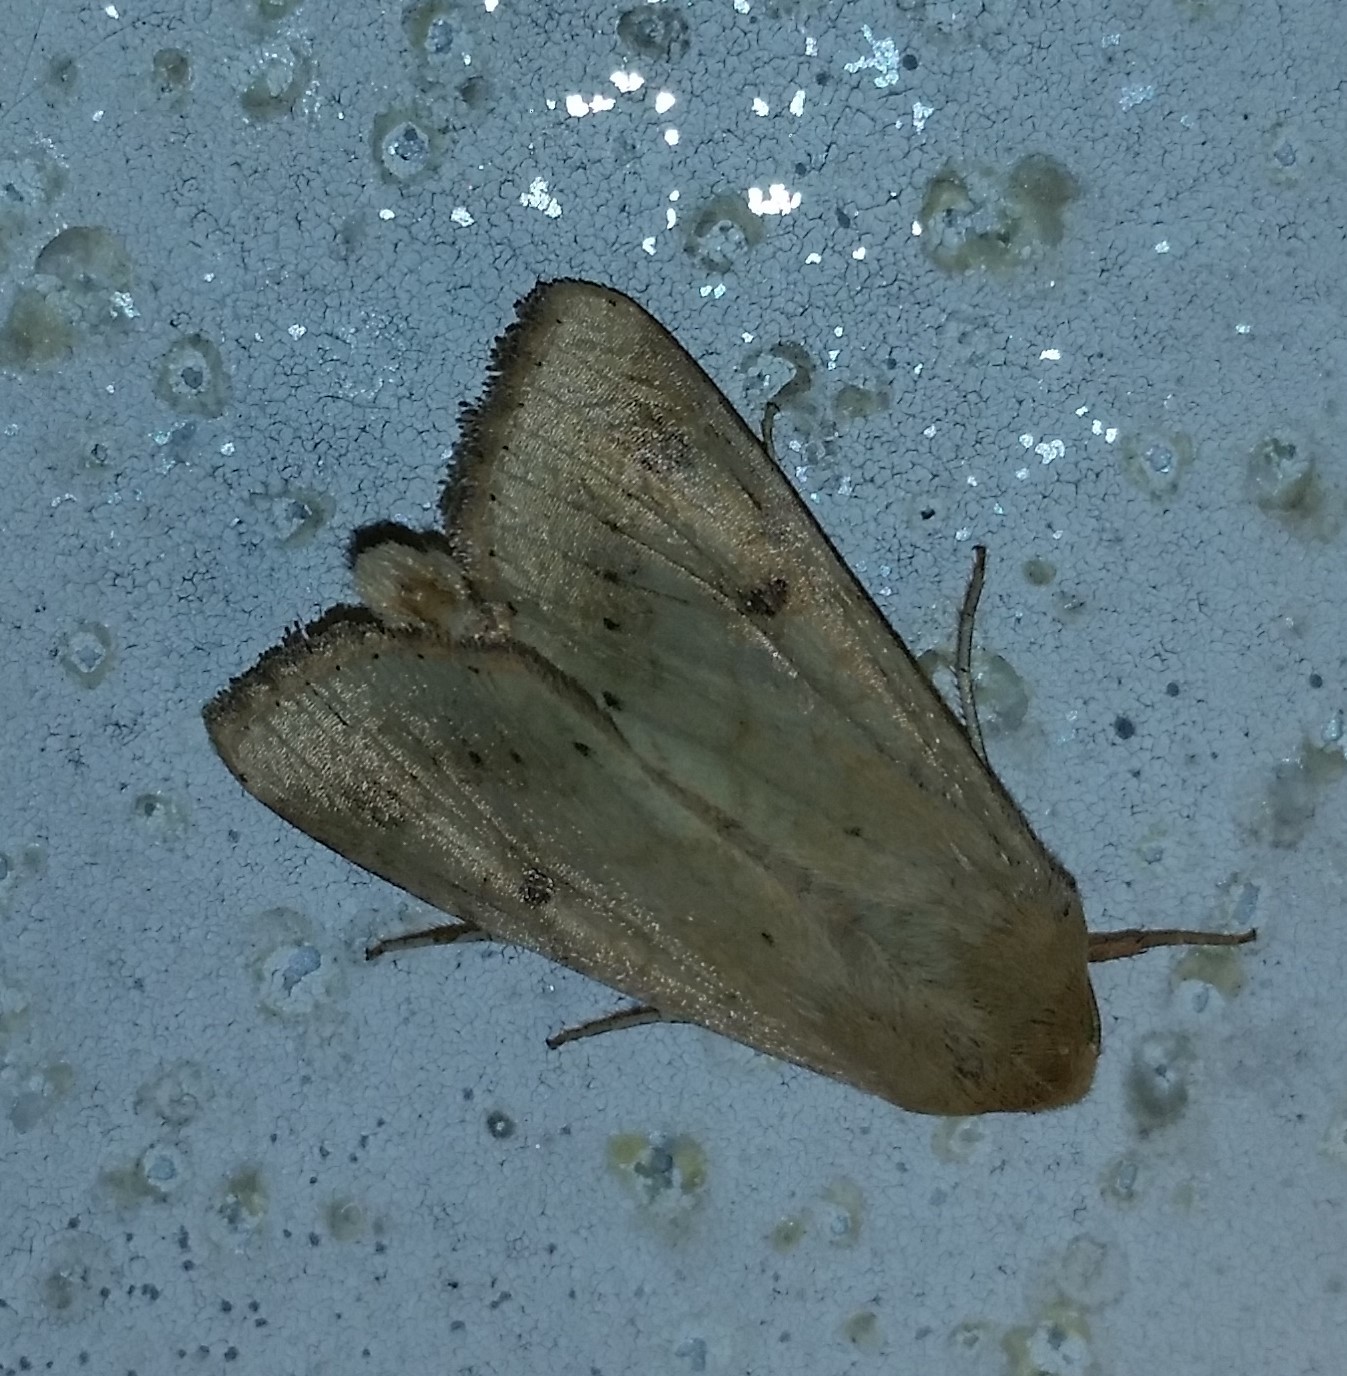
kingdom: Animalia
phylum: Arthropoda
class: Insecta
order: Lepidoptera
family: Noctuidae
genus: Helicoverpa
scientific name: Helicoverpa zea
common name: Bollworm
